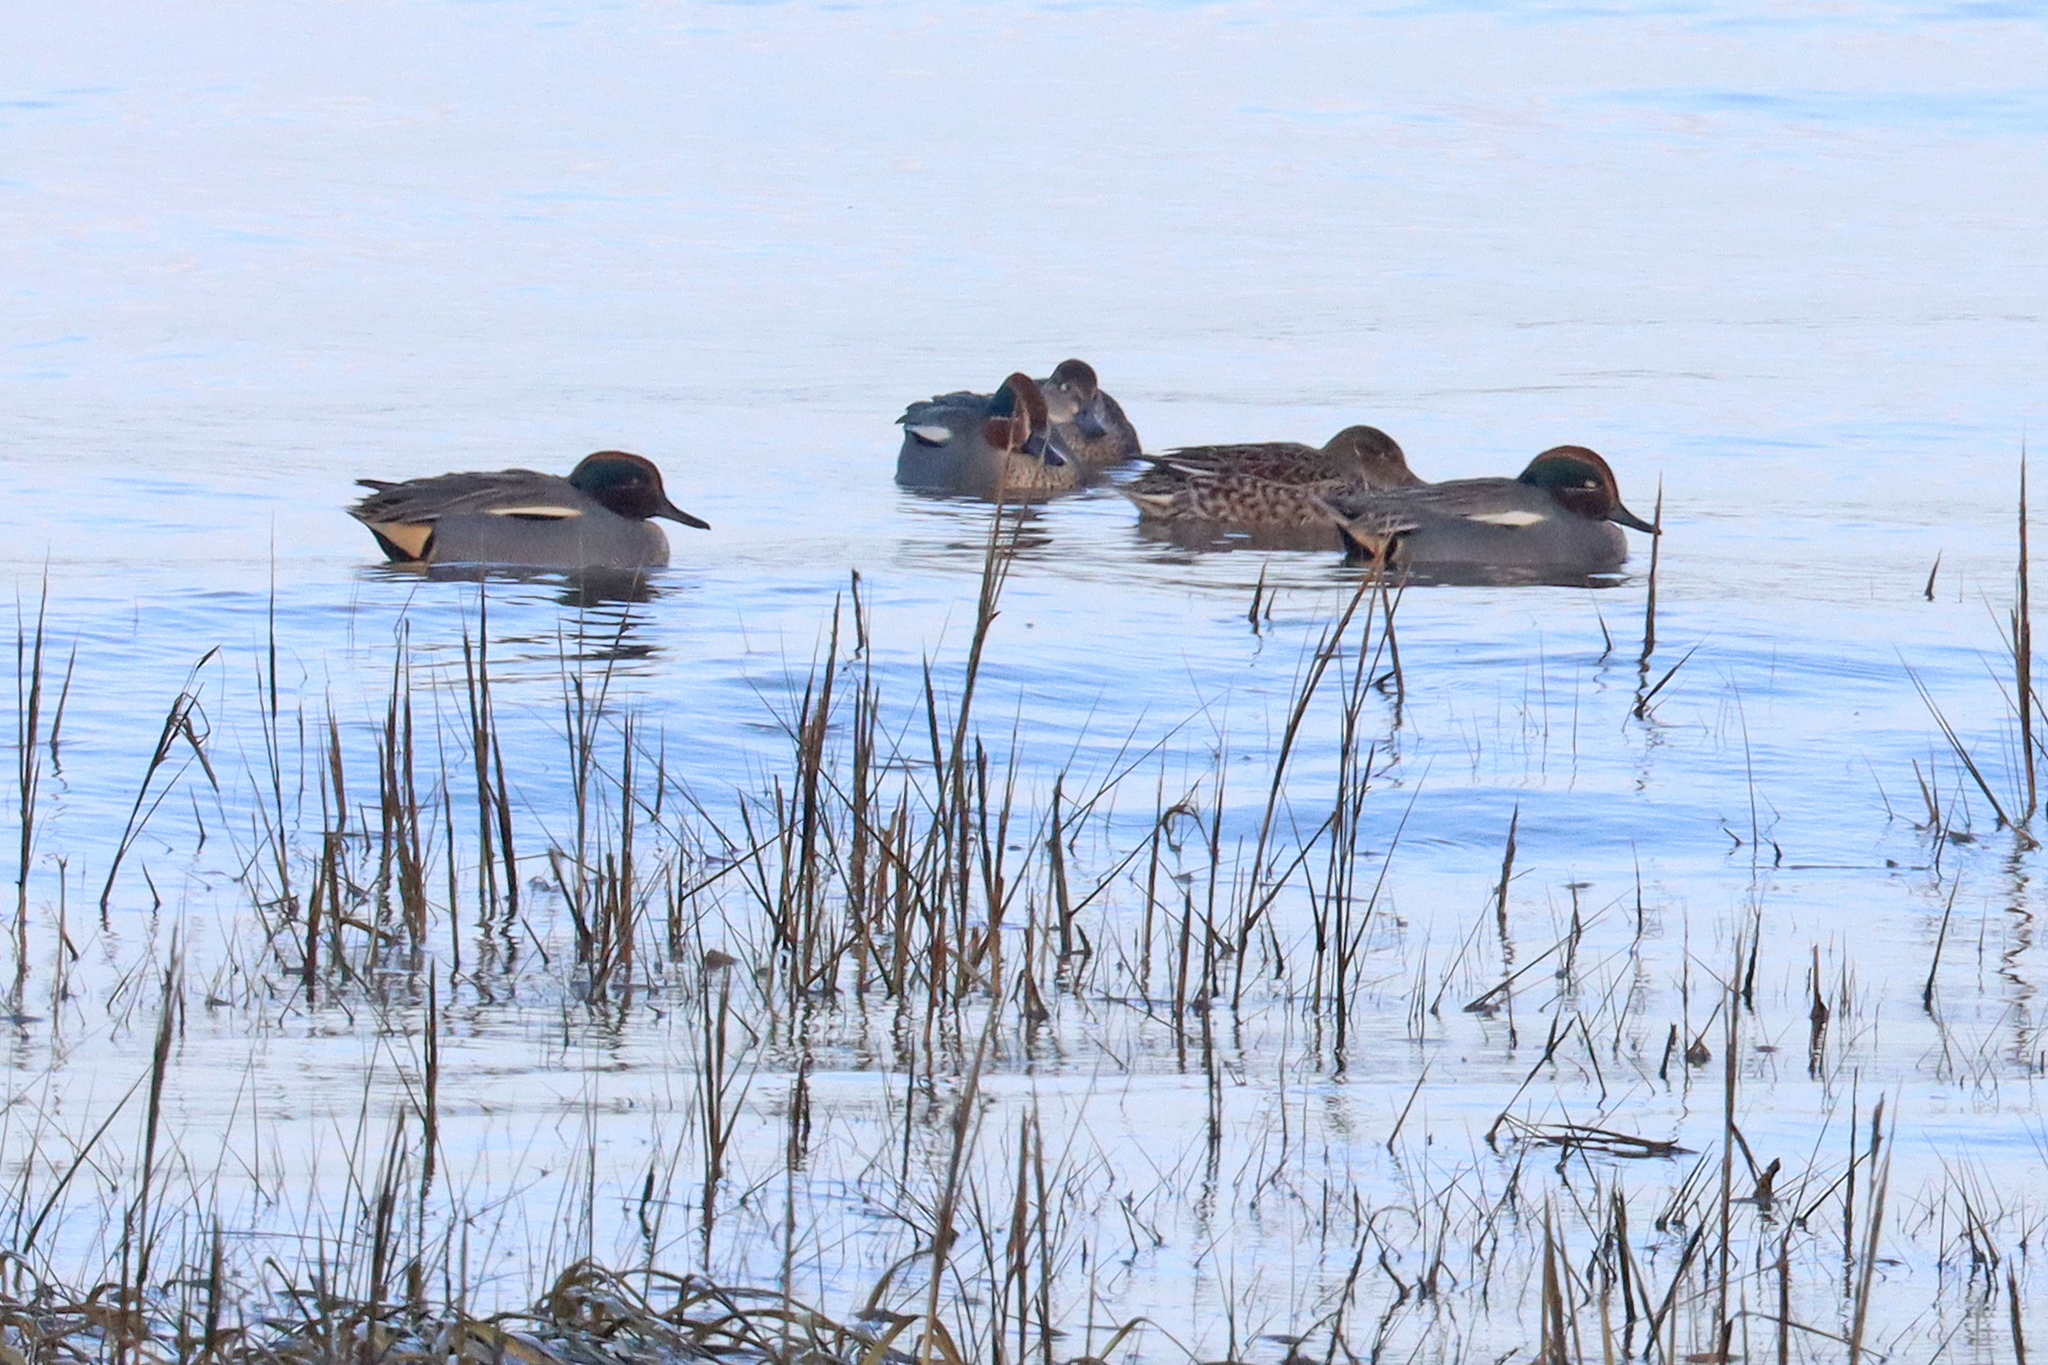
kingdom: Animalia
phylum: Chordata
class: Aves
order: Anseriformes
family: Anatidae
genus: Anas
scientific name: Anas crecca
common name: Eurasian teal
